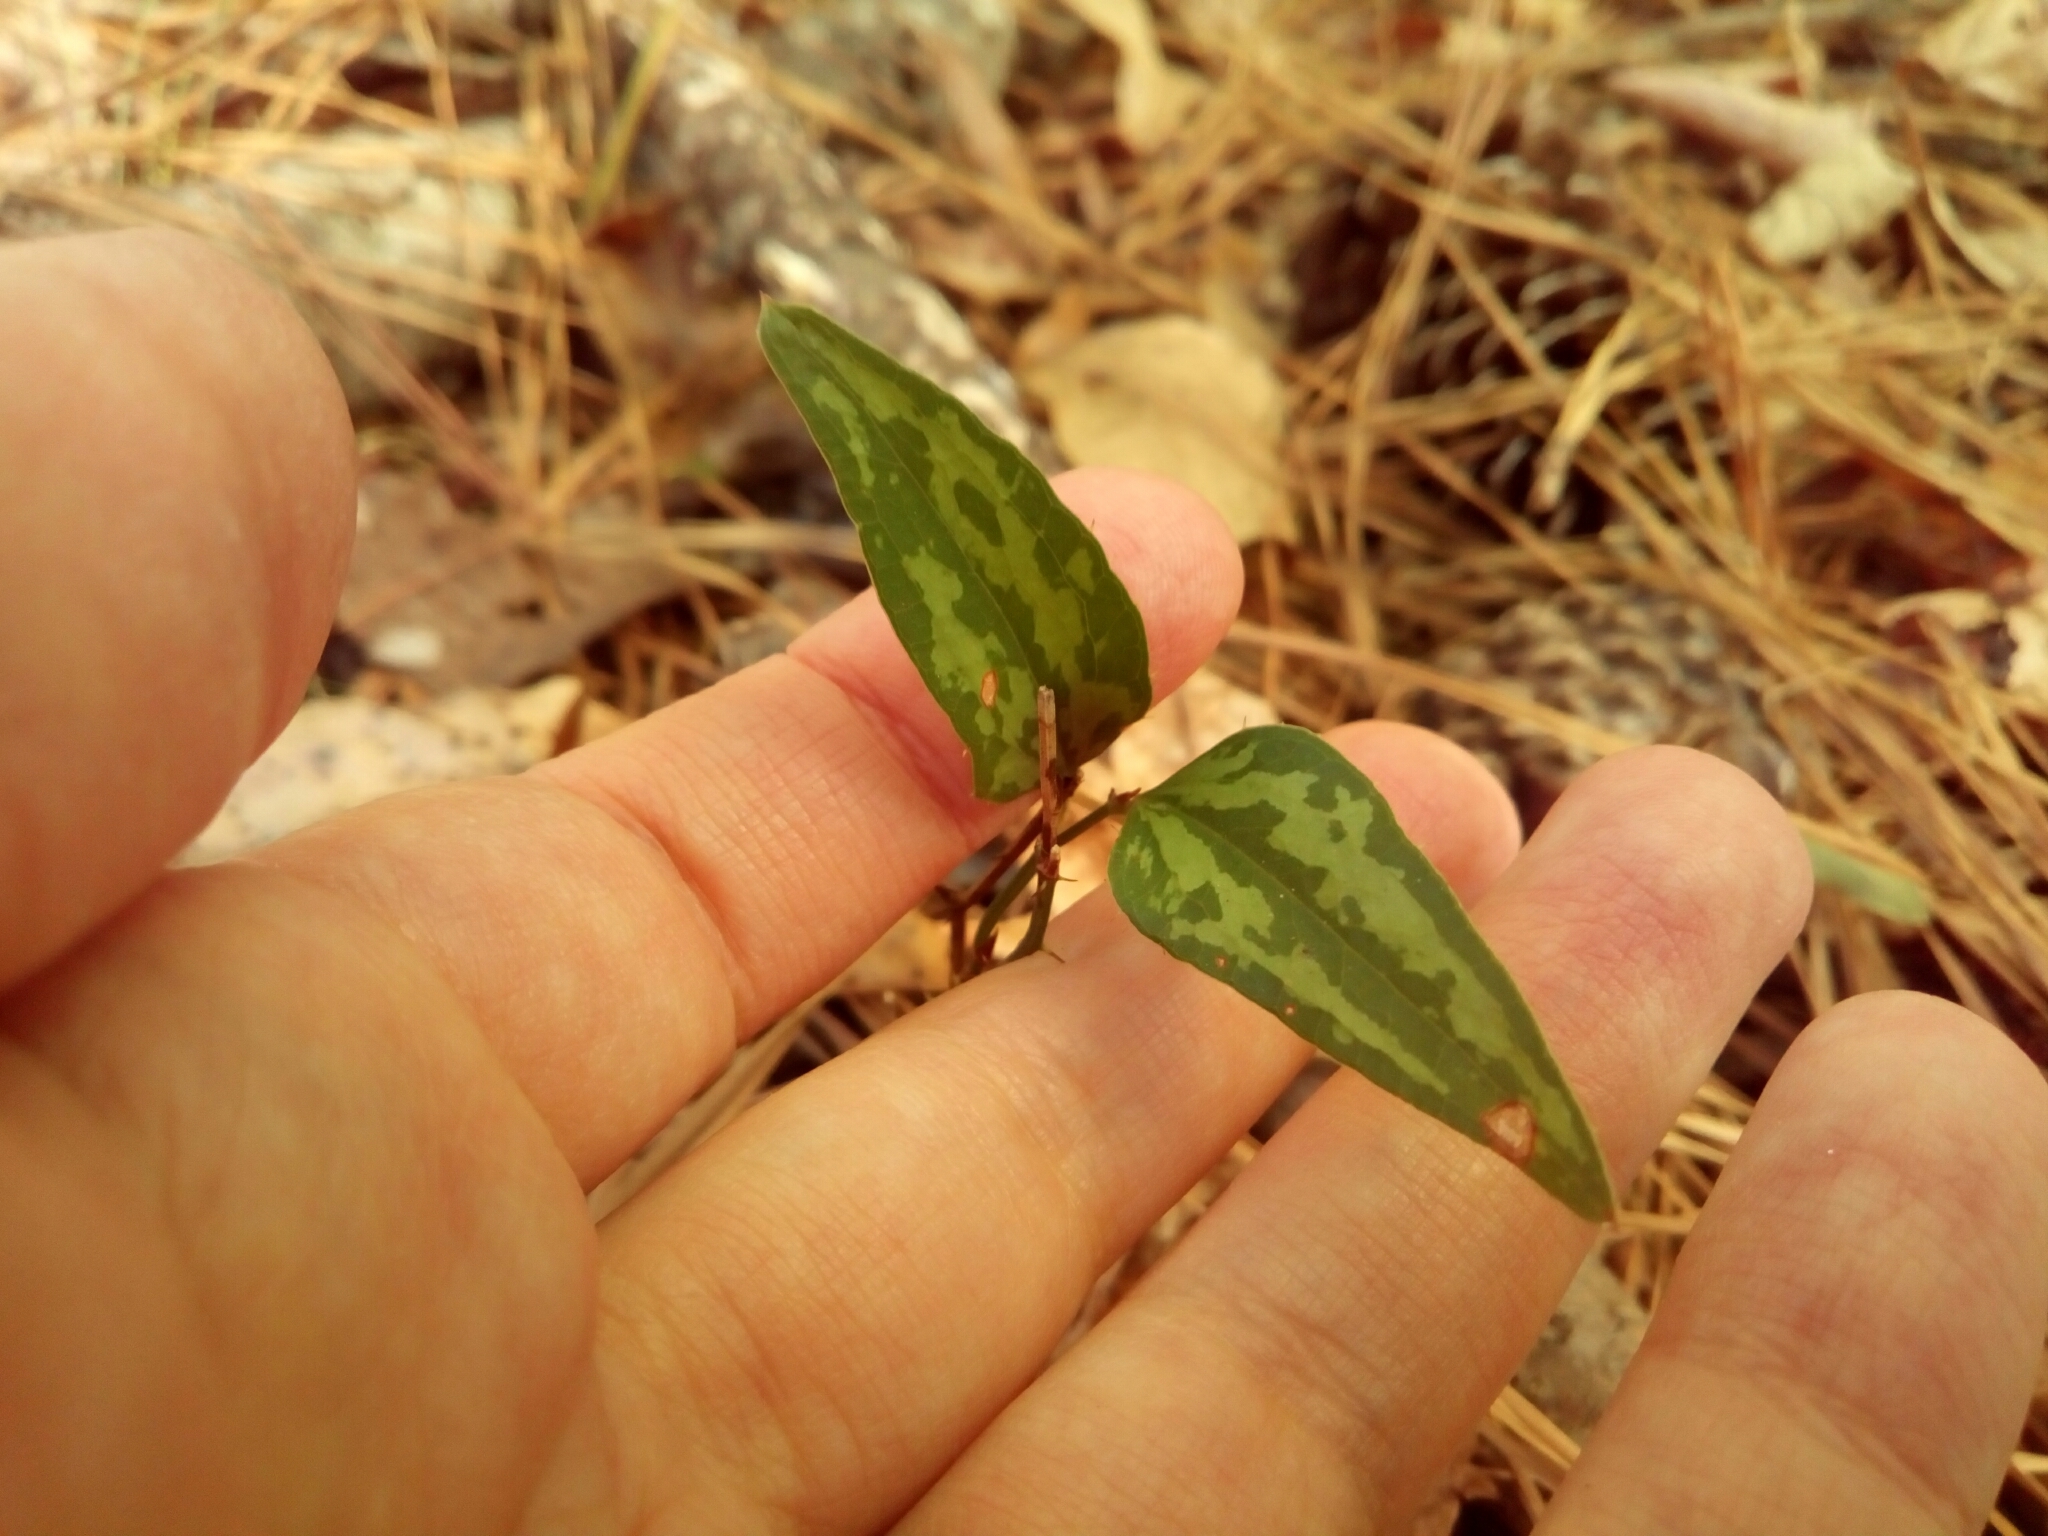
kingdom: Plantae
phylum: Tracheophyta
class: Liliopsida
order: Liliales
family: Smilacaceae
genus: Smilax
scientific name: Smilax bona-nox
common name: Catbrier
